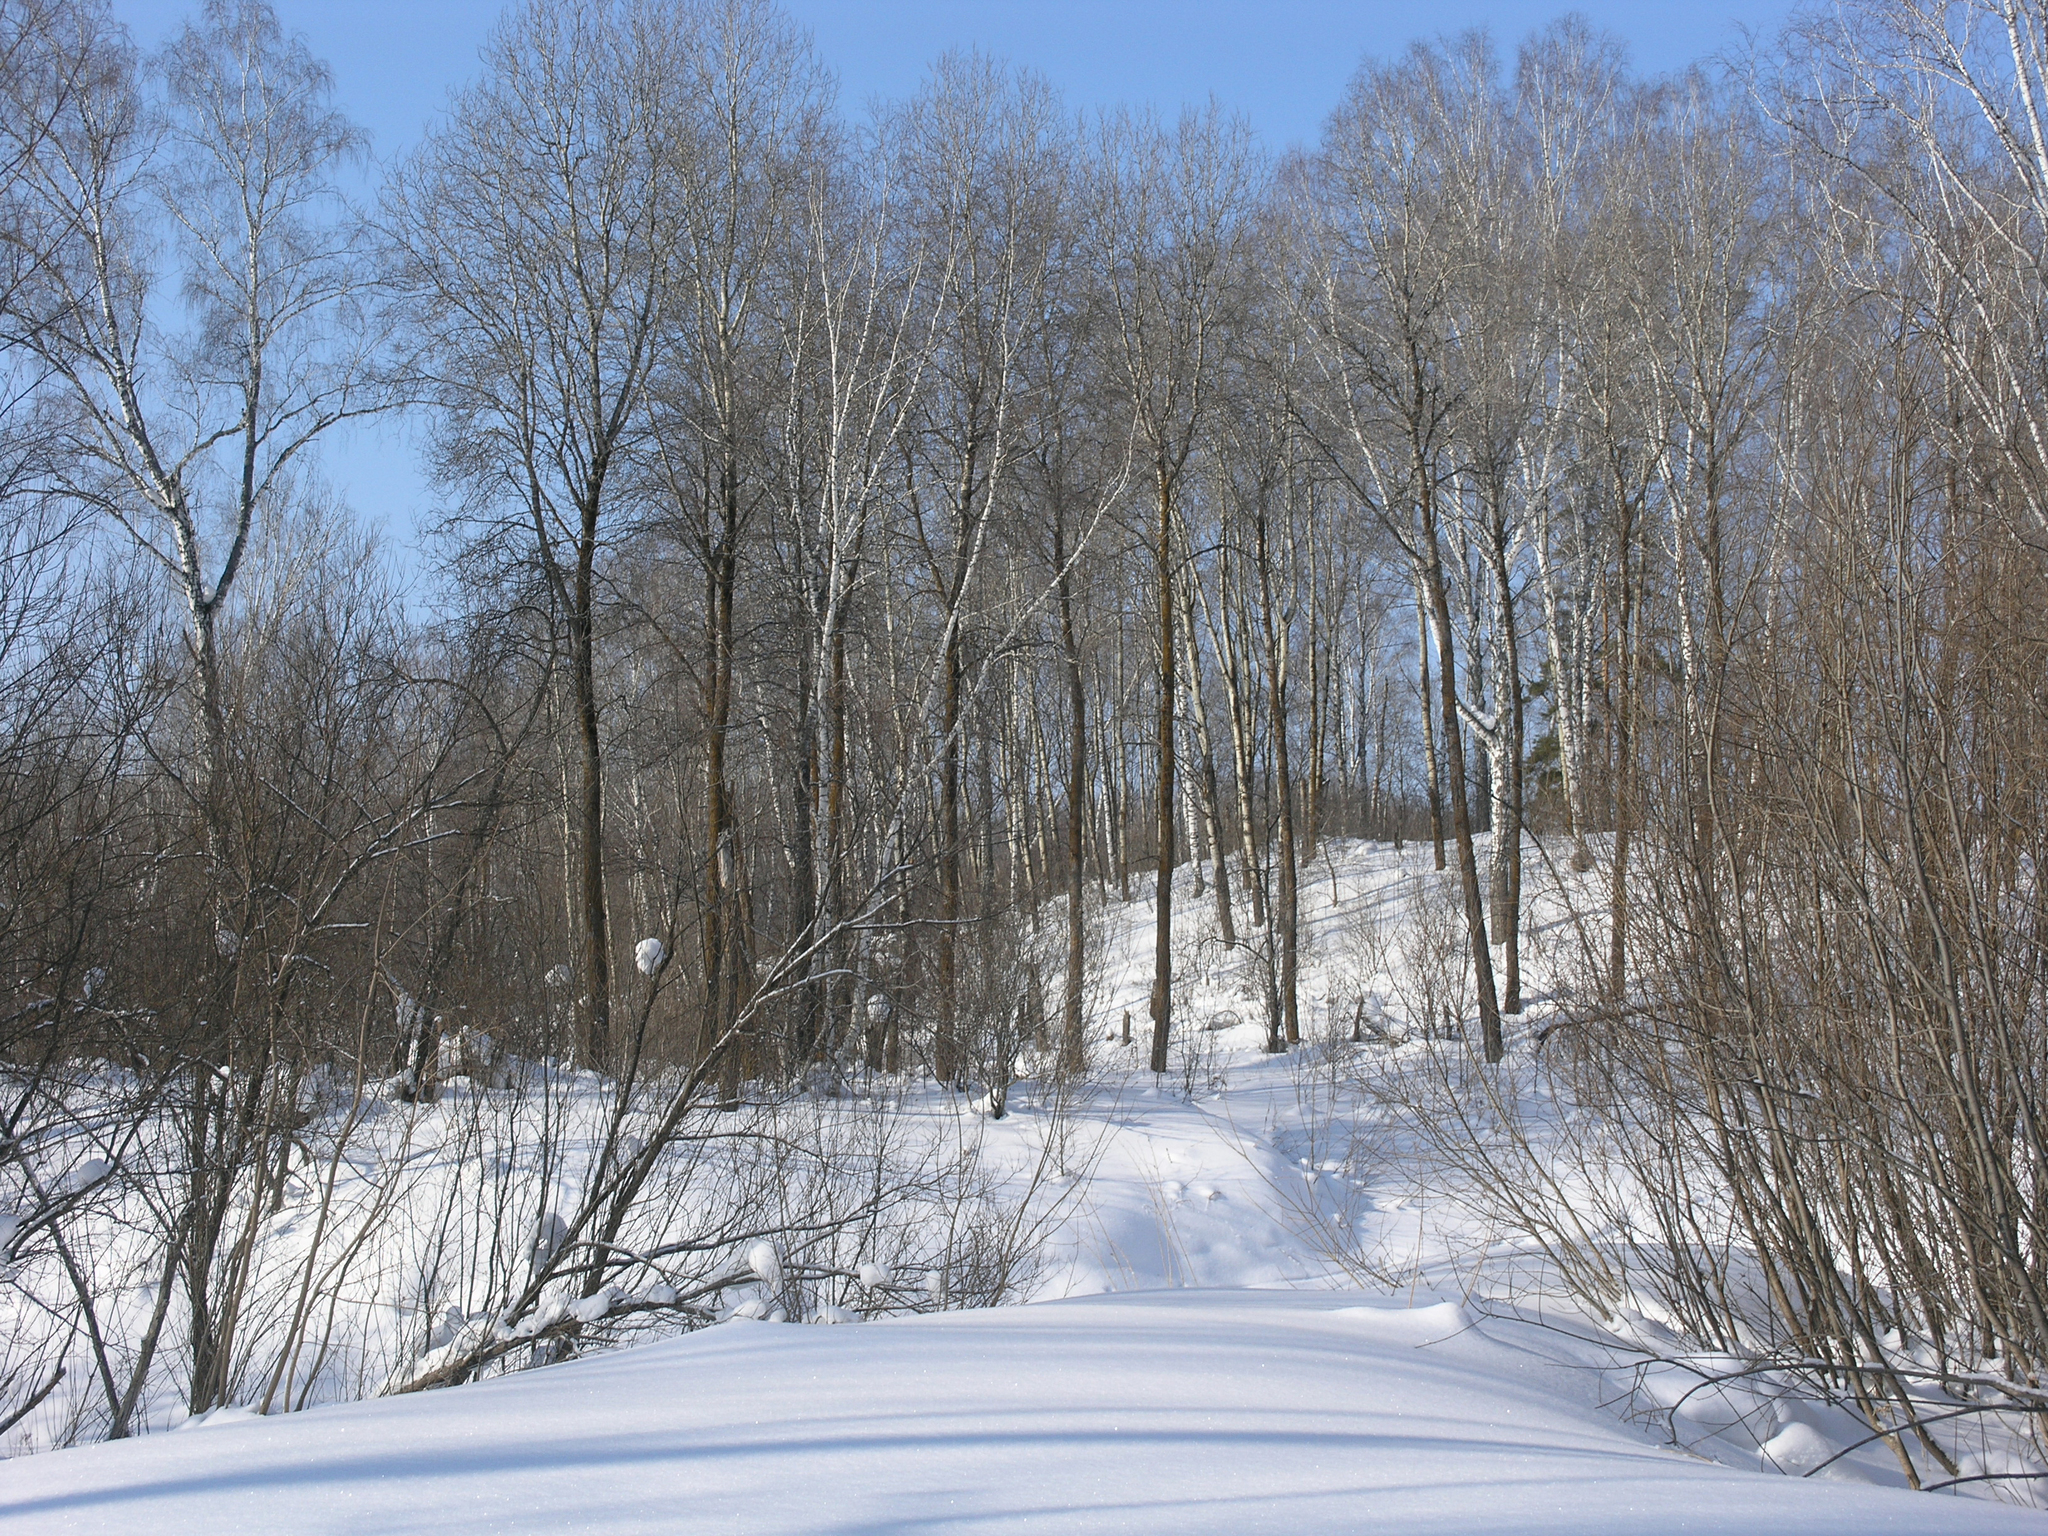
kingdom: Plantae
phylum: Tracheophyta
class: Magnoliopsida
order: Malpighiales
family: Salicaceae
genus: Populus
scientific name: Populus tremula
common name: European aspen
